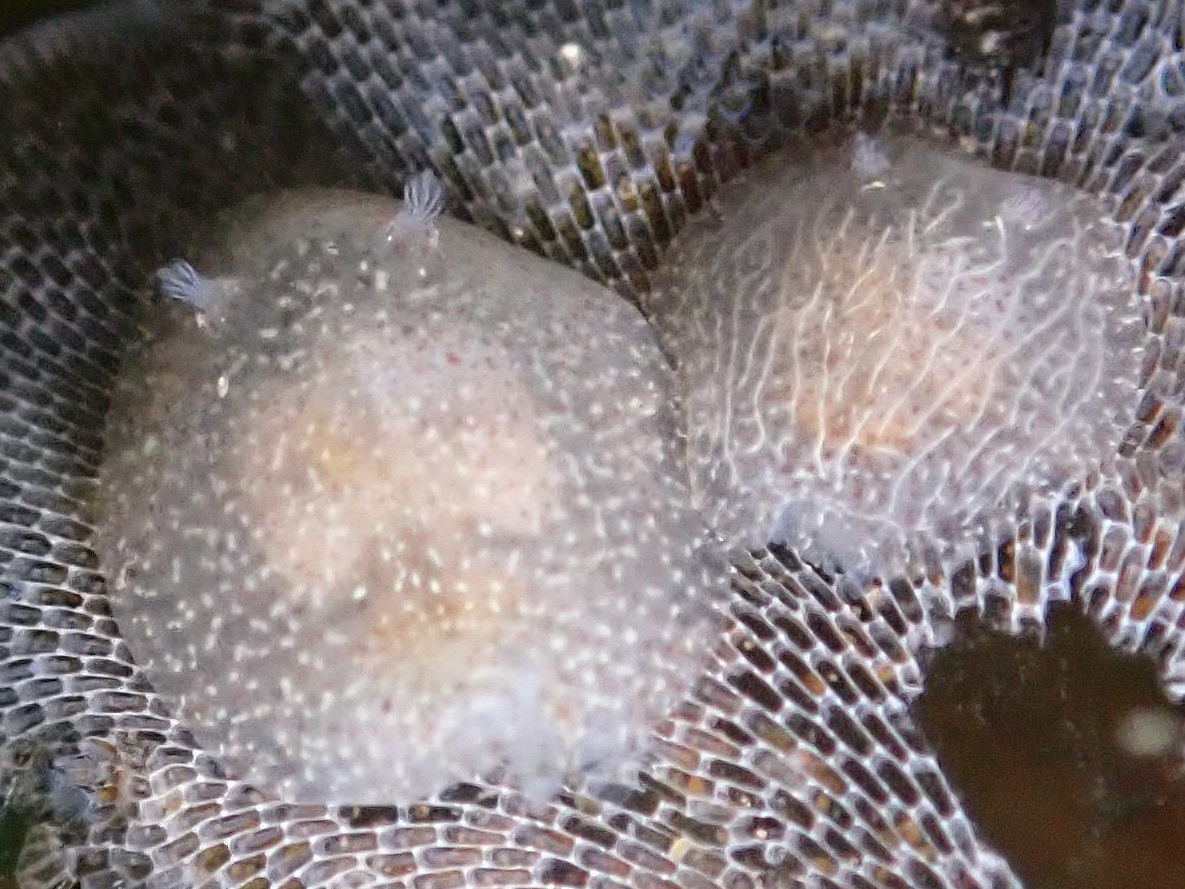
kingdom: Animalia
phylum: Mollusca
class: Gastropoda
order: Nudibranchia
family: Corambidae
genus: Corambe
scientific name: Corambe pacifica
